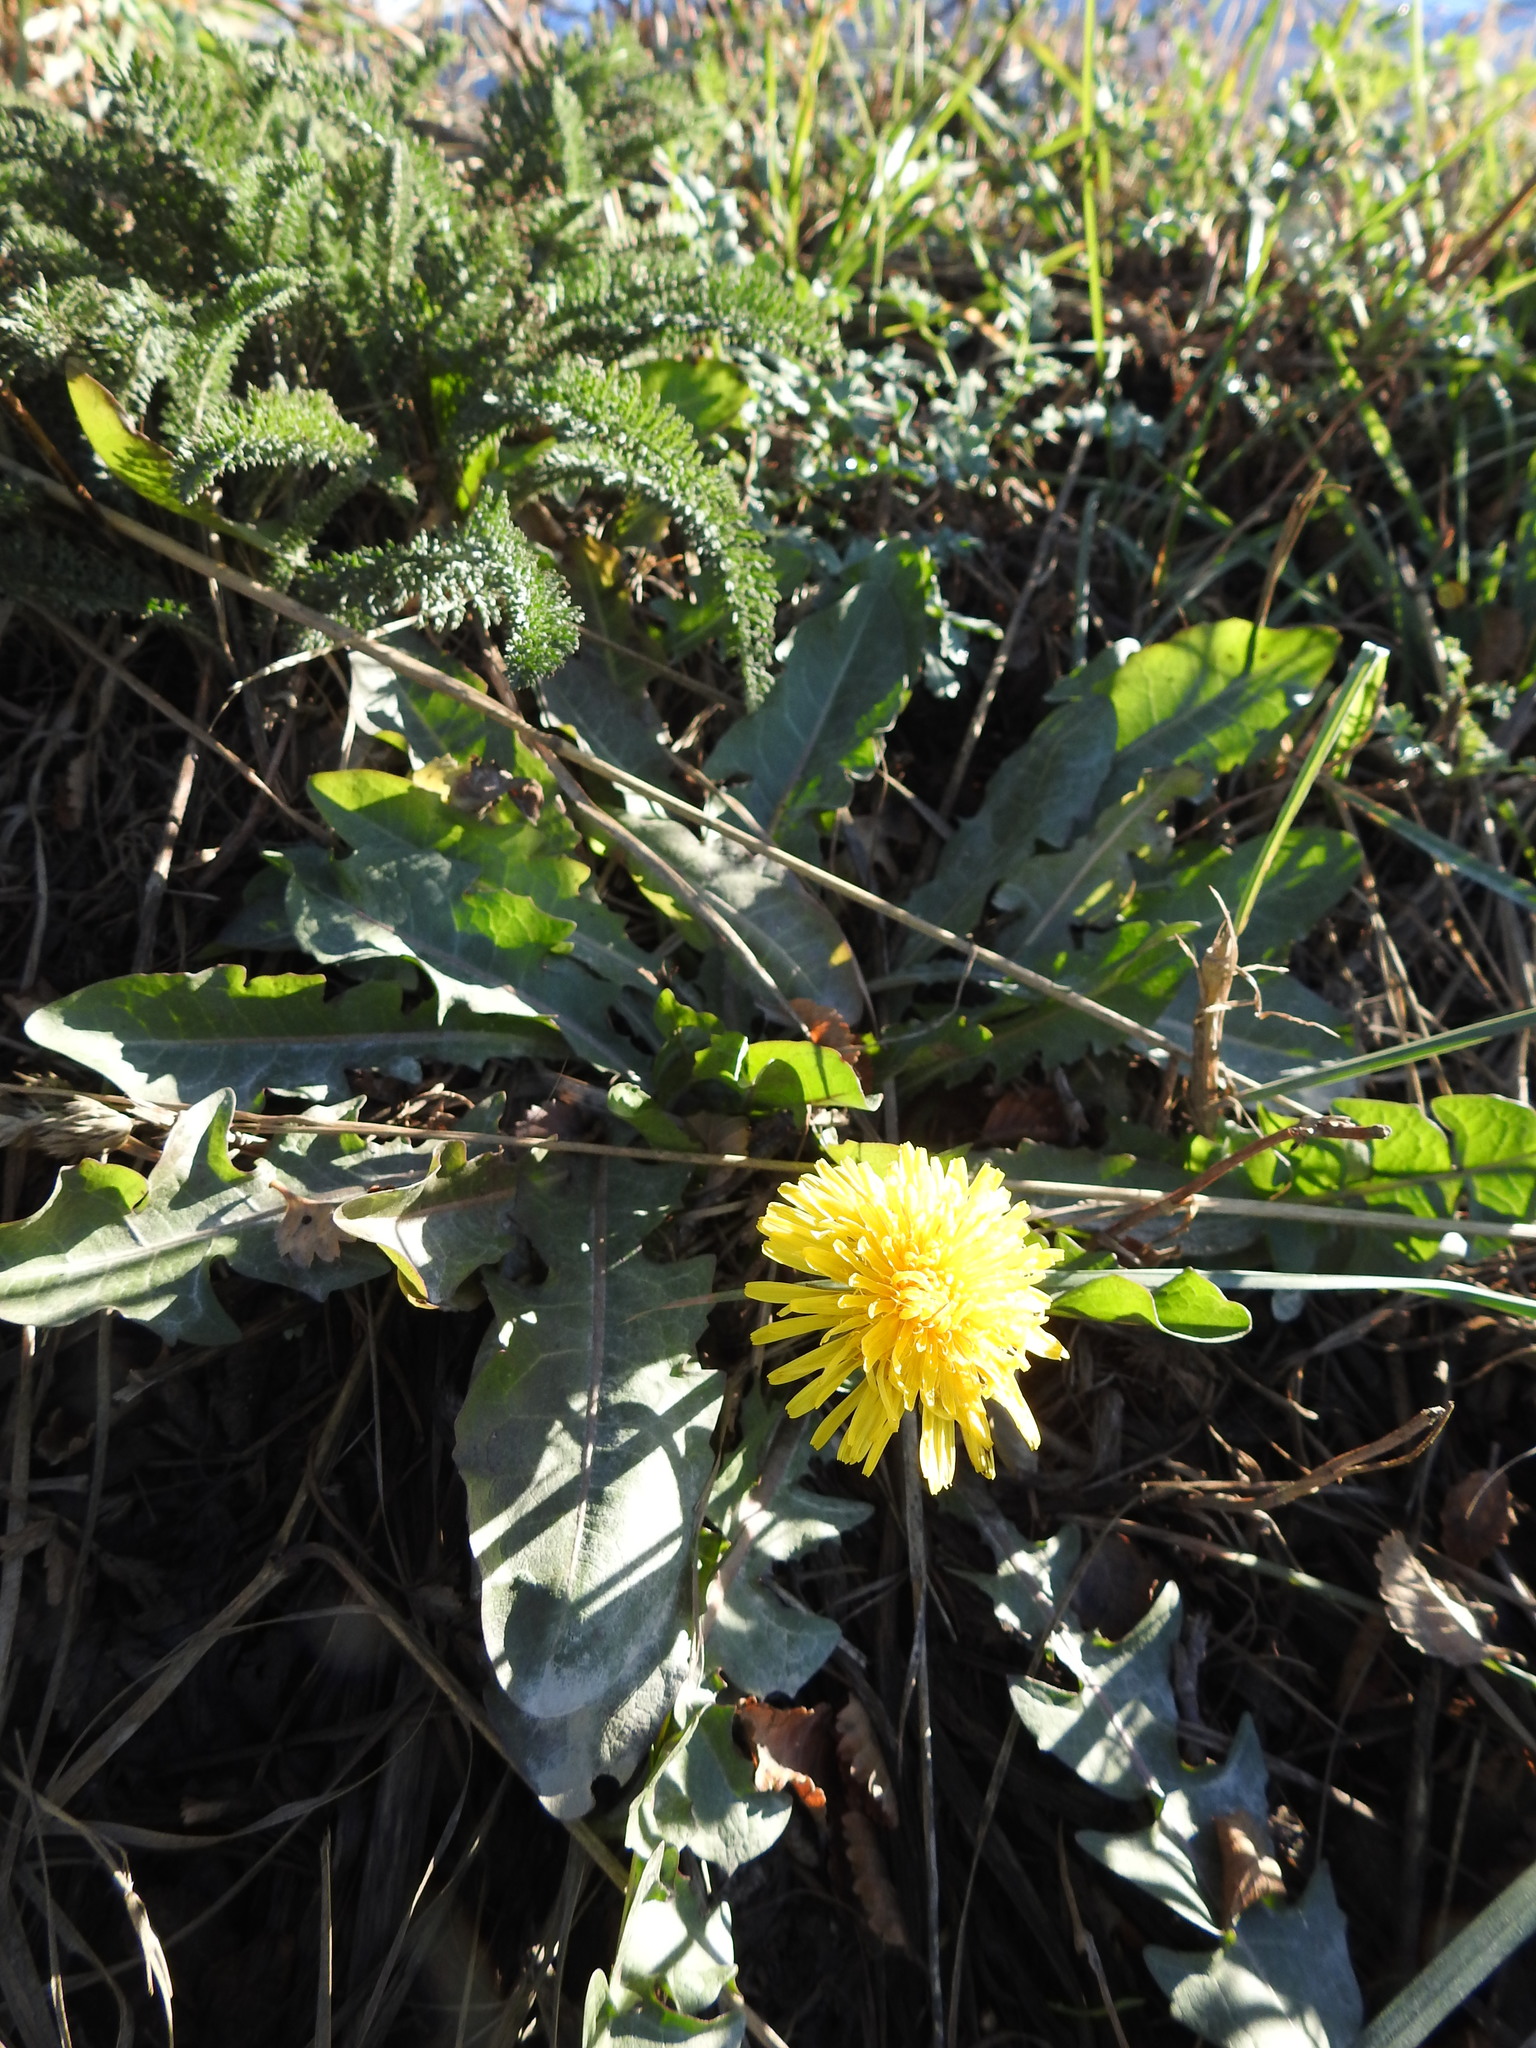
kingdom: Plantae
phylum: Tracheophyta
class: Magnoliopsida
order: Asterales
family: Asteraceae
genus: Taraxacum
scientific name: Taraxacum officinale
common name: Common dandelion
